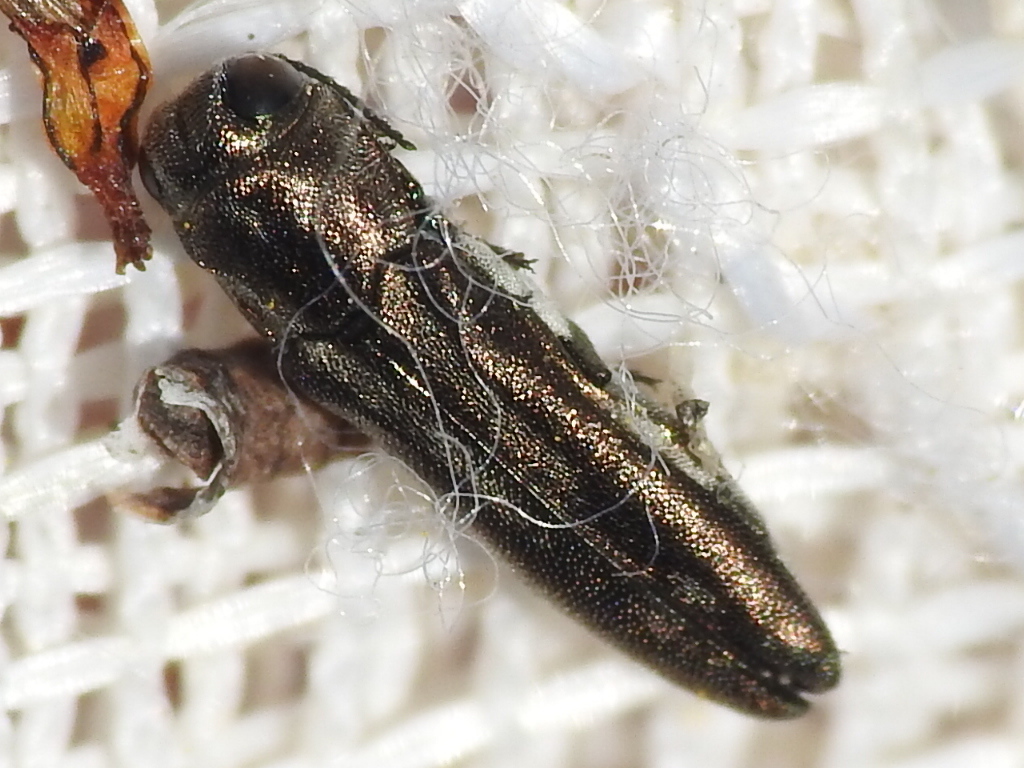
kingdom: Animalia
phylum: Arthropoda
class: Insecta
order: Coleoptera
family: Buprestidae
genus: Agrilus
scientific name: Agrilus addendus
